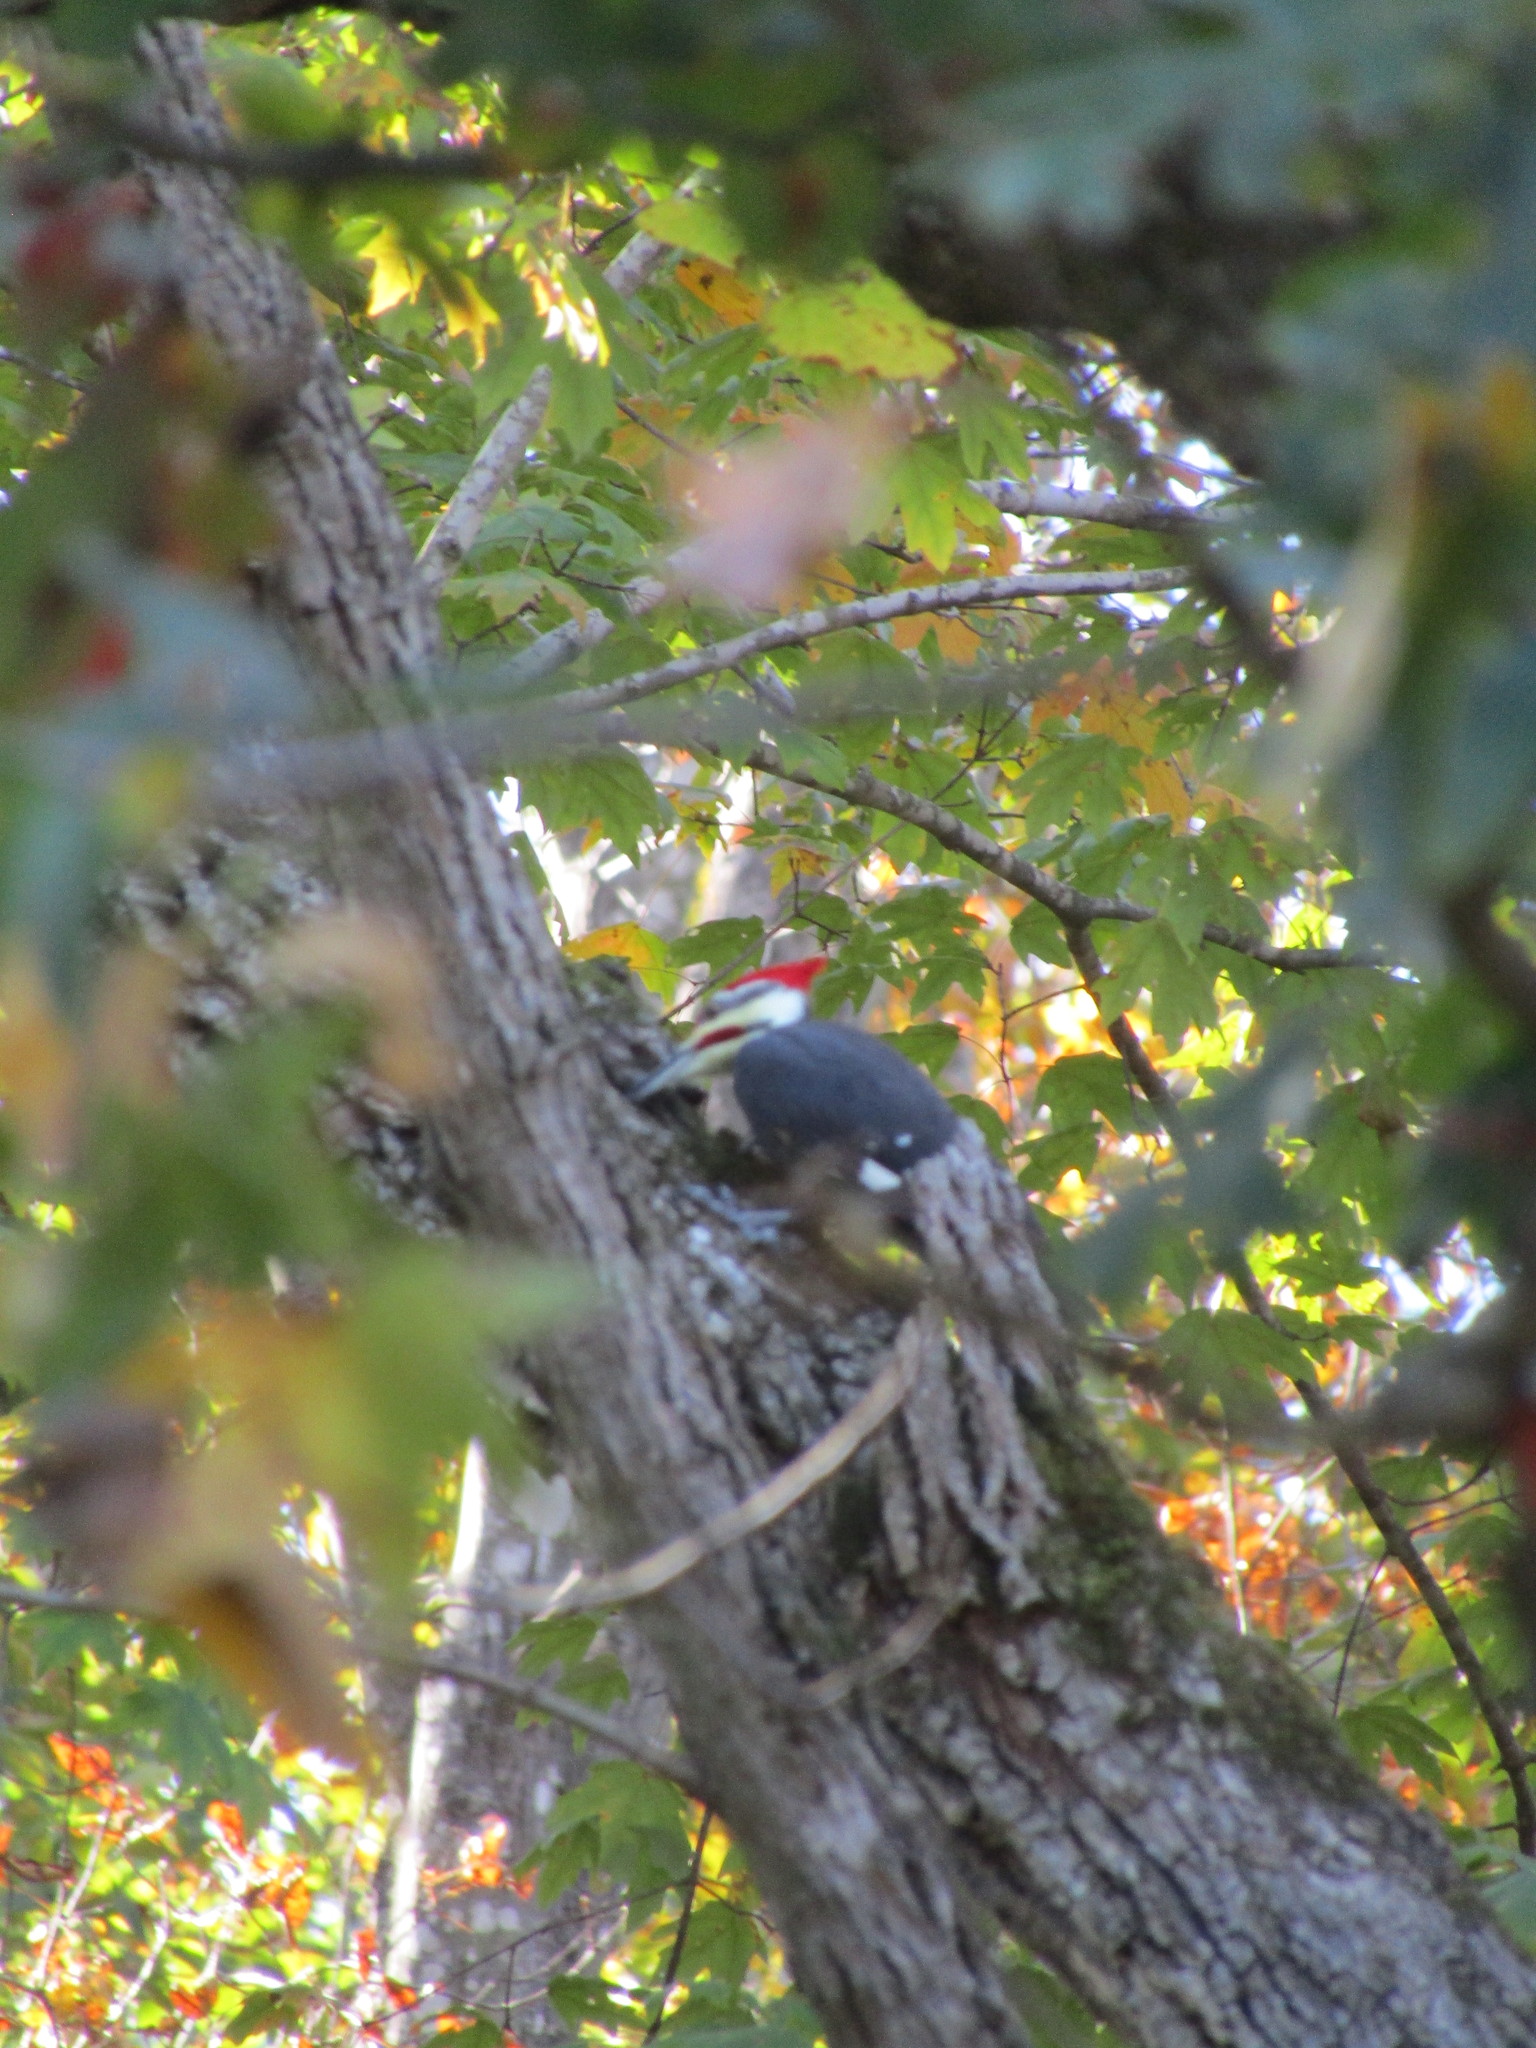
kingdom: Animalia
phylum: Chordata
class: Aves
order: Piciformes
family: Picidae
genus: Dryocopus
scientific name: Dryocopus pileatus
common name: Pileated woodpecker
